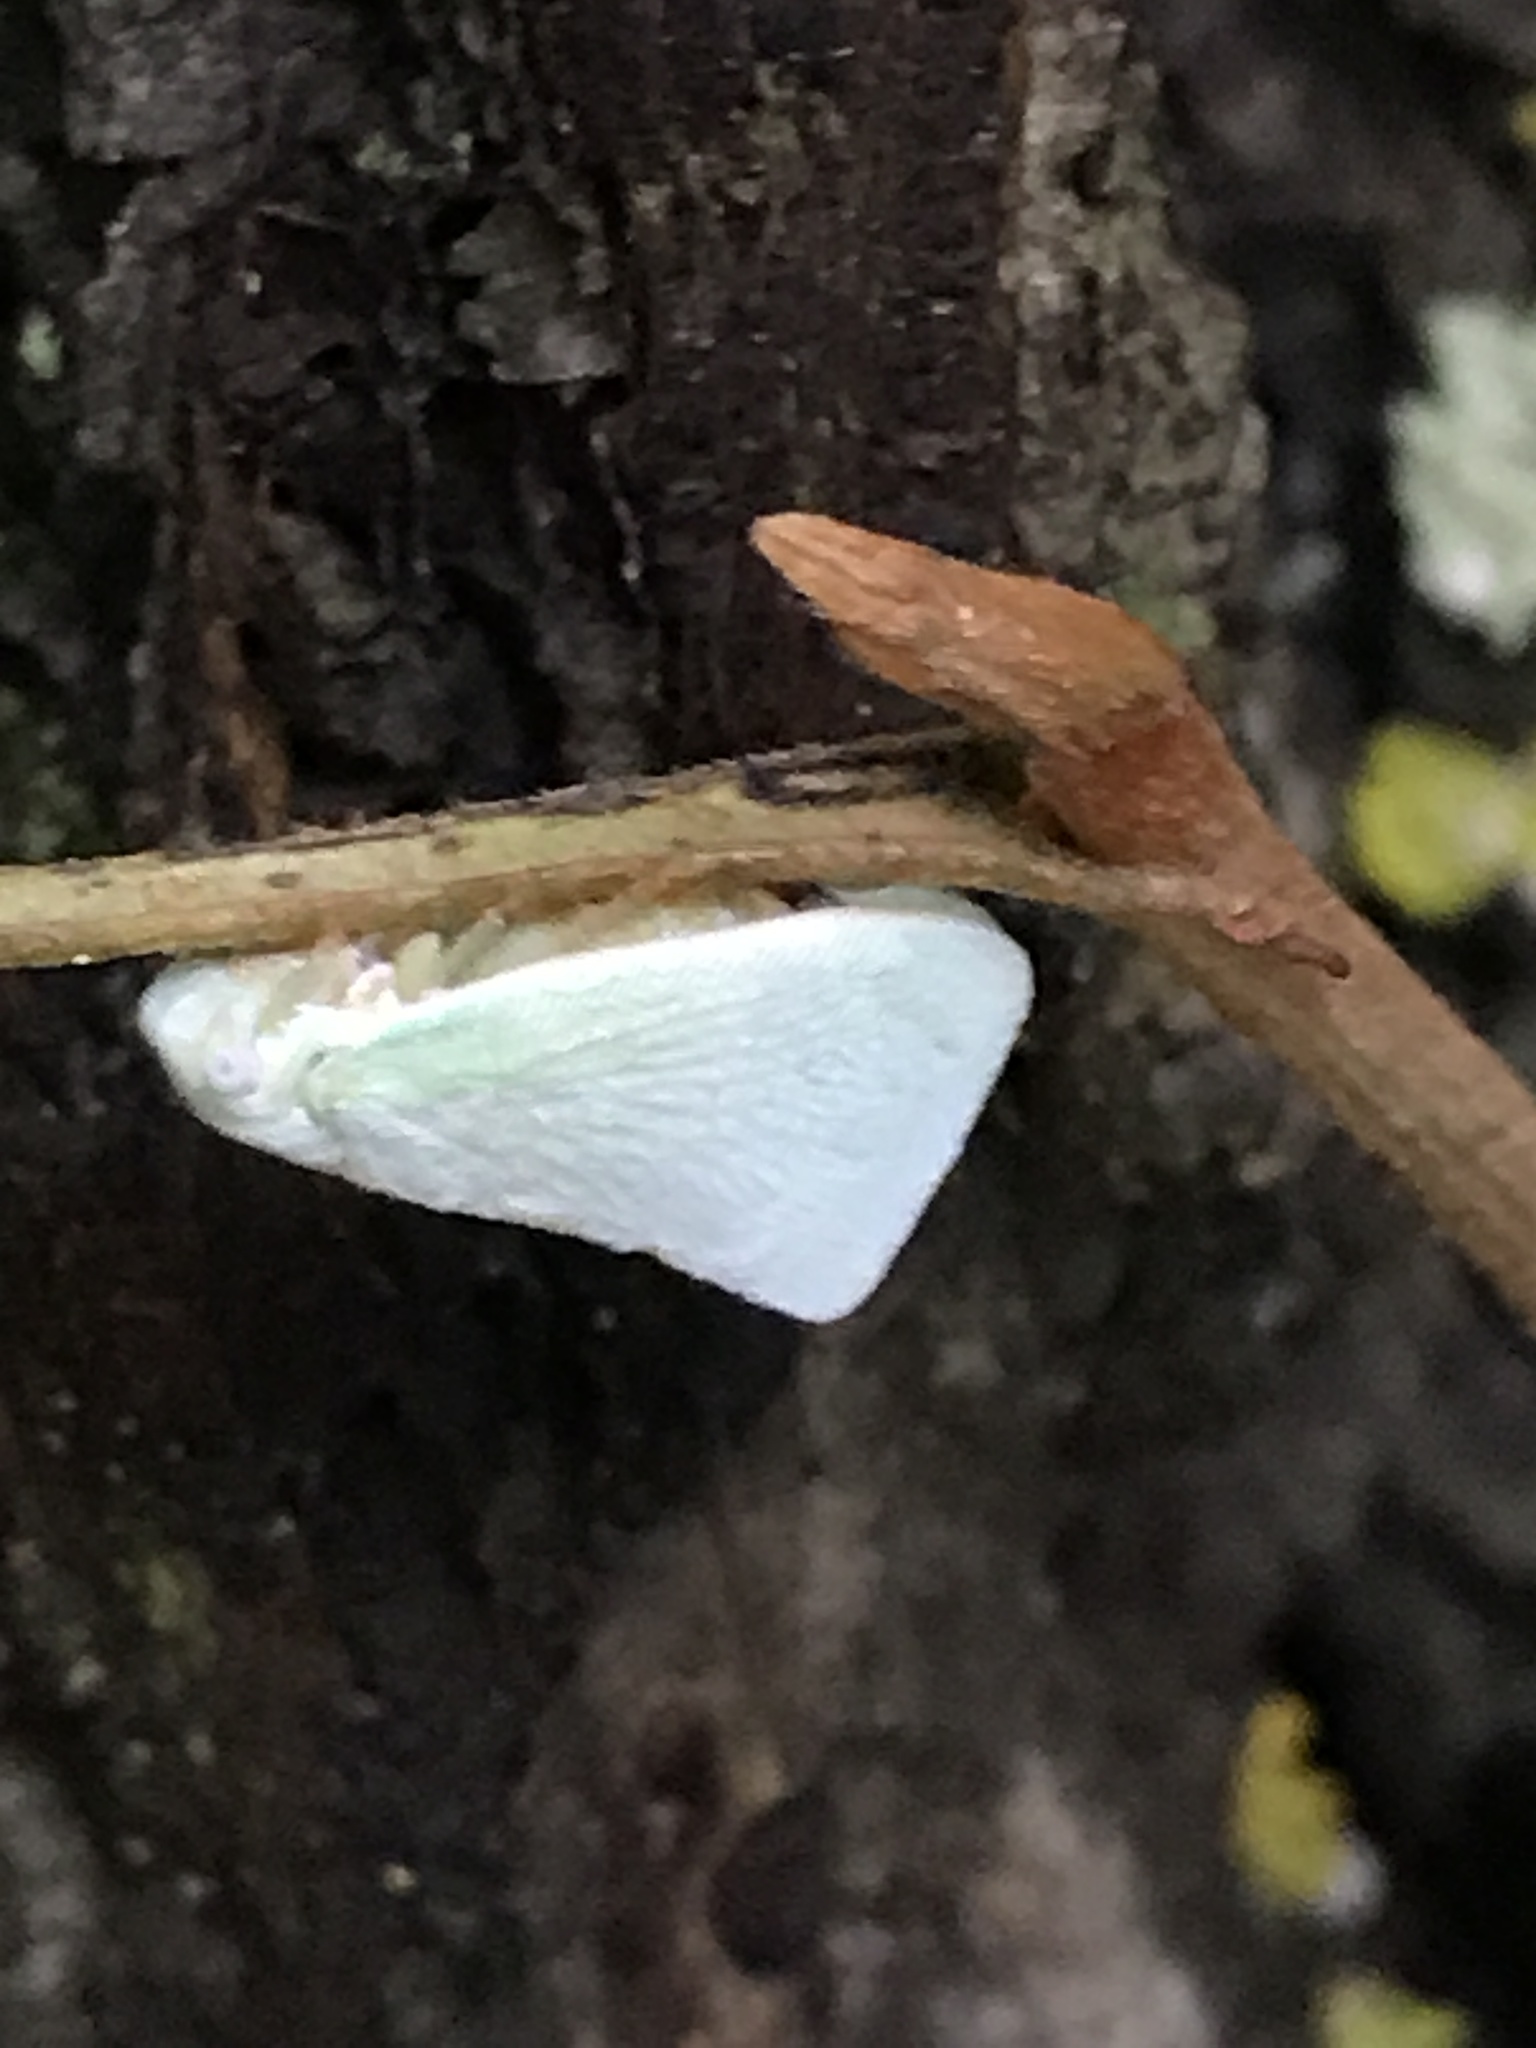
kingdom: Animalia
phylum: Arthropoda
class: Insecta
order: Hemiptera
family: Flatidae
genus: Flatormenis
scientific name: Flatormenis proxima
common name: Northern flatid planthopper
